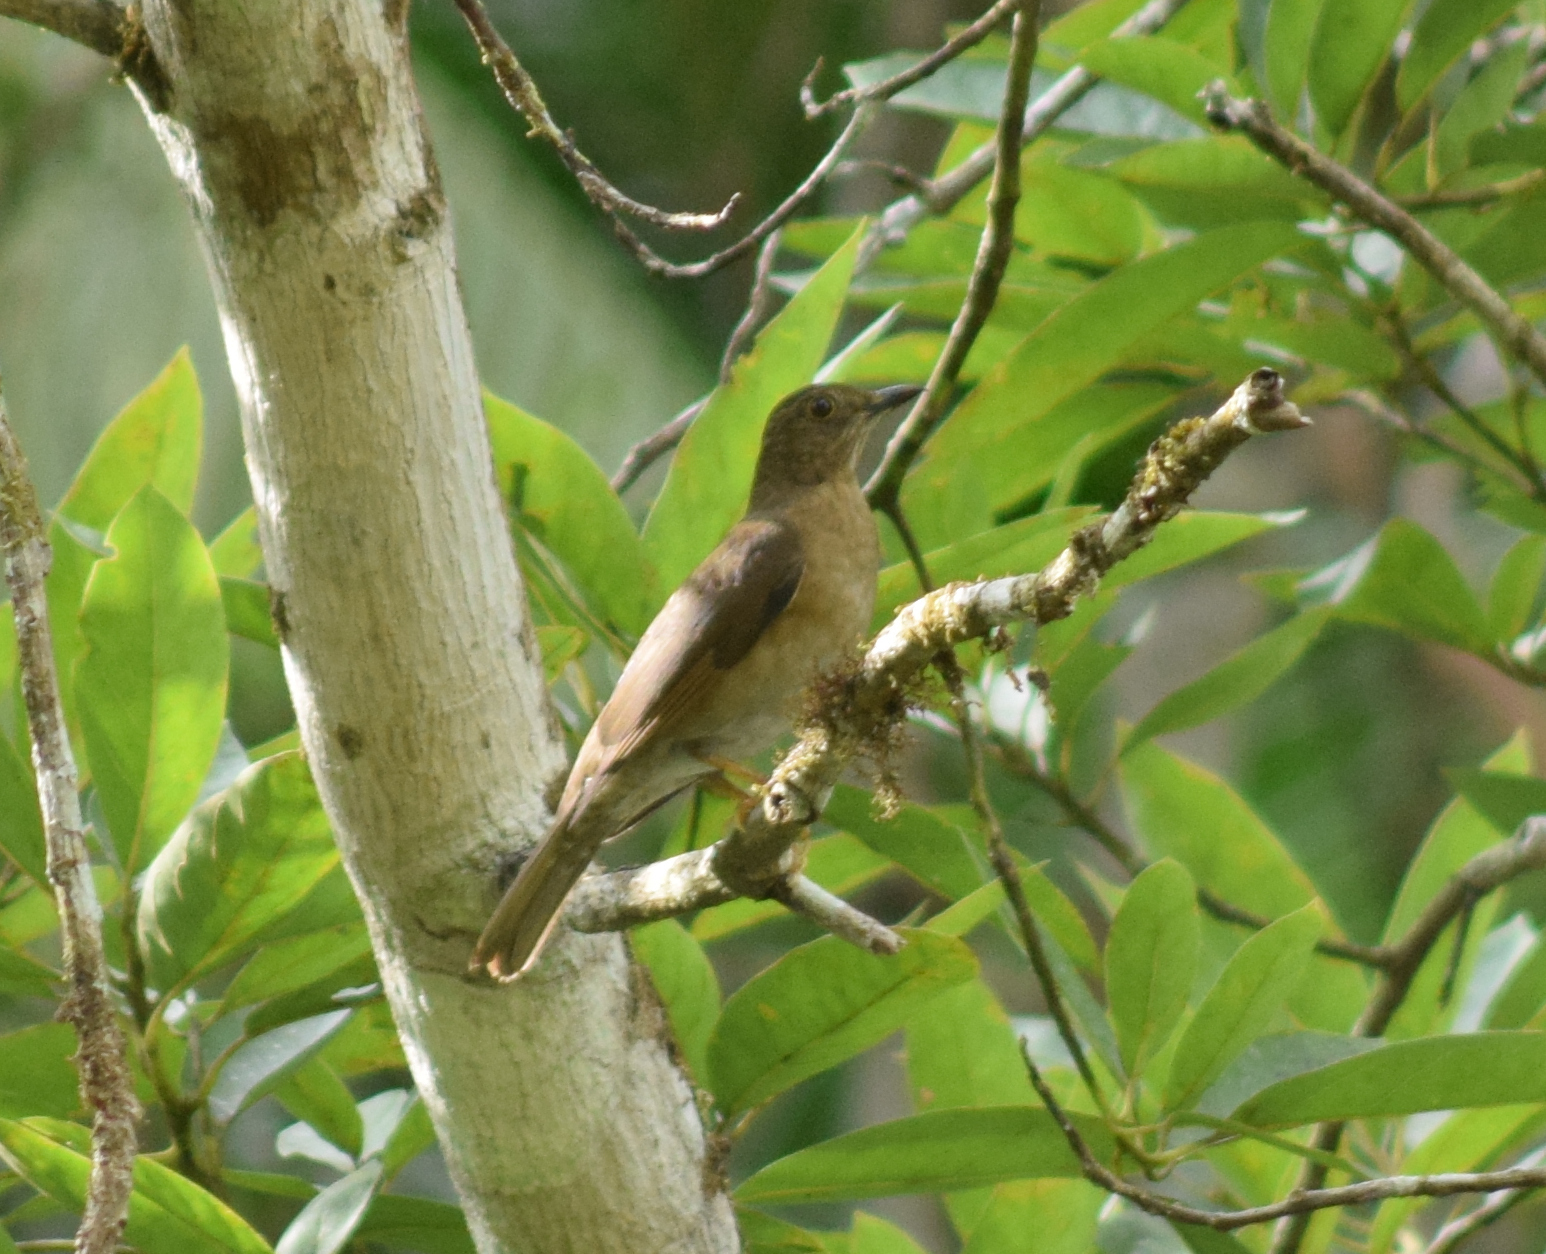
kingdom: Animalia
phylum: Chordata
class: Aves
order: Passeriformes
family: Turdidae
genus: Turdus
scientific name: Turdus flavipes
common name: Yellow-legged thrush
